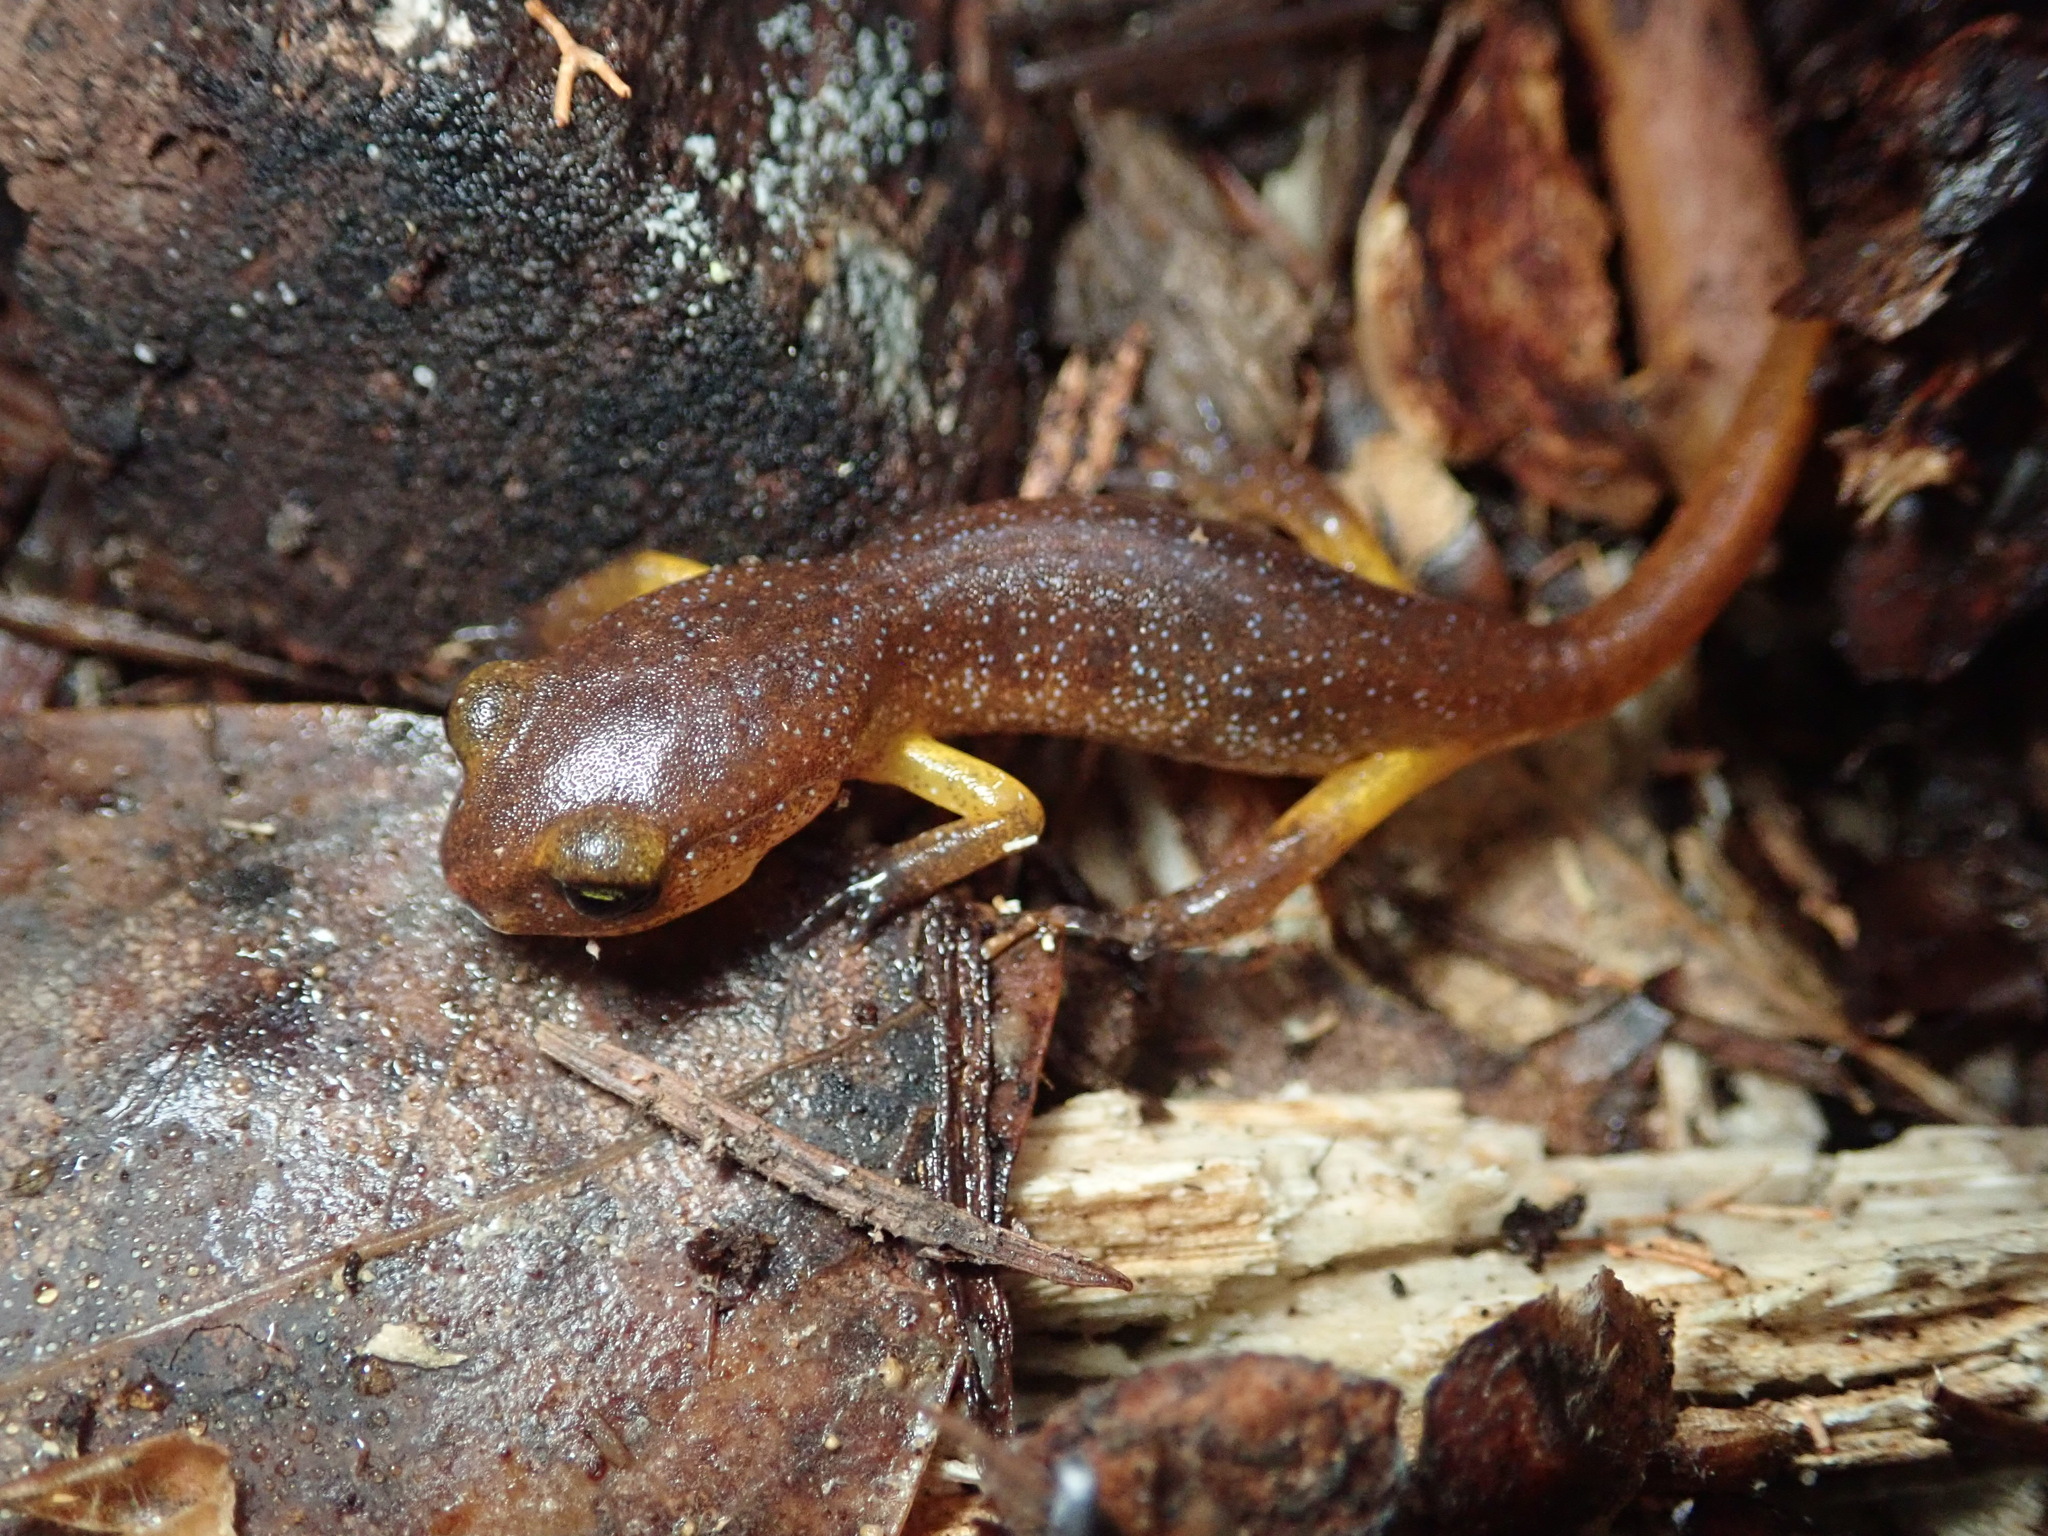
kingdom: Animalia
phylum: Chordata
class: Amphibia
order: Caudata
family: Plethodontidae
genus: Ensatina
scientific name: Ensatina eschscholtzii
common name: Ensatina
